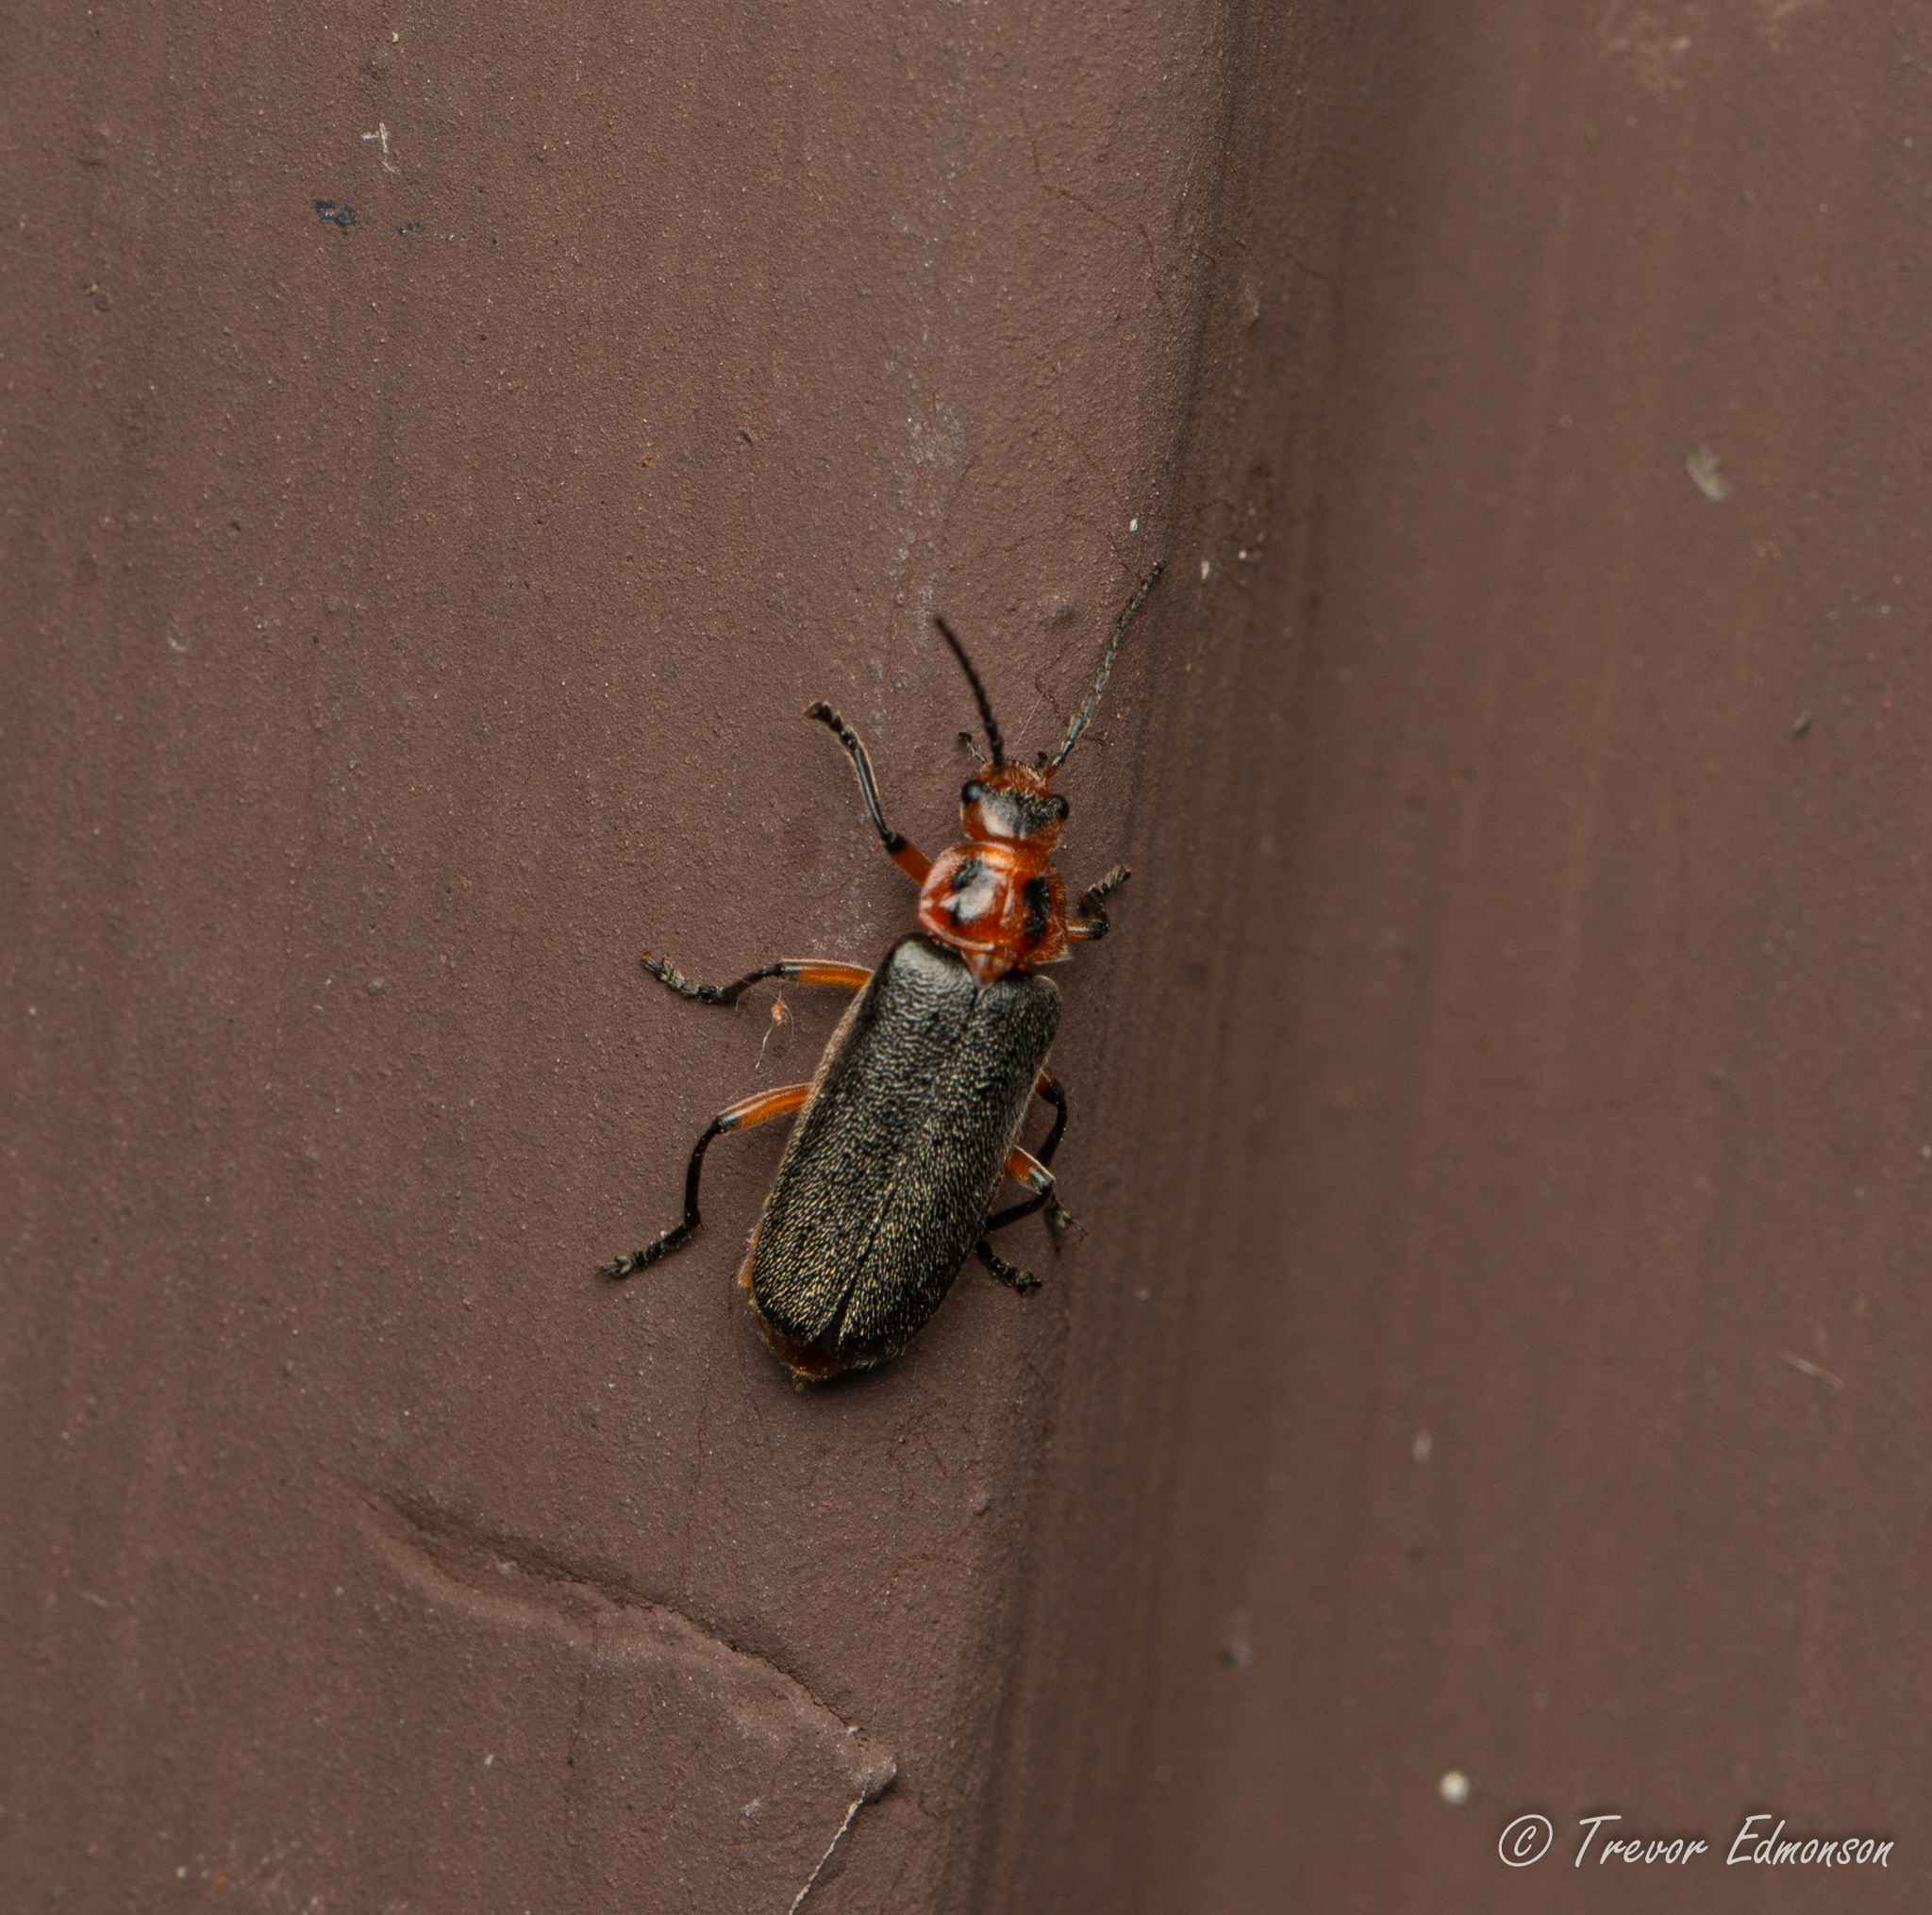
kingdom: Animalia
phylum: Arthropoda
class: Insecta
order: Coleoptera
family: Cantharidae
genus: Atalantycha
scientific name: Atalantycha bilineata
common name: Two-lined leatherwing
